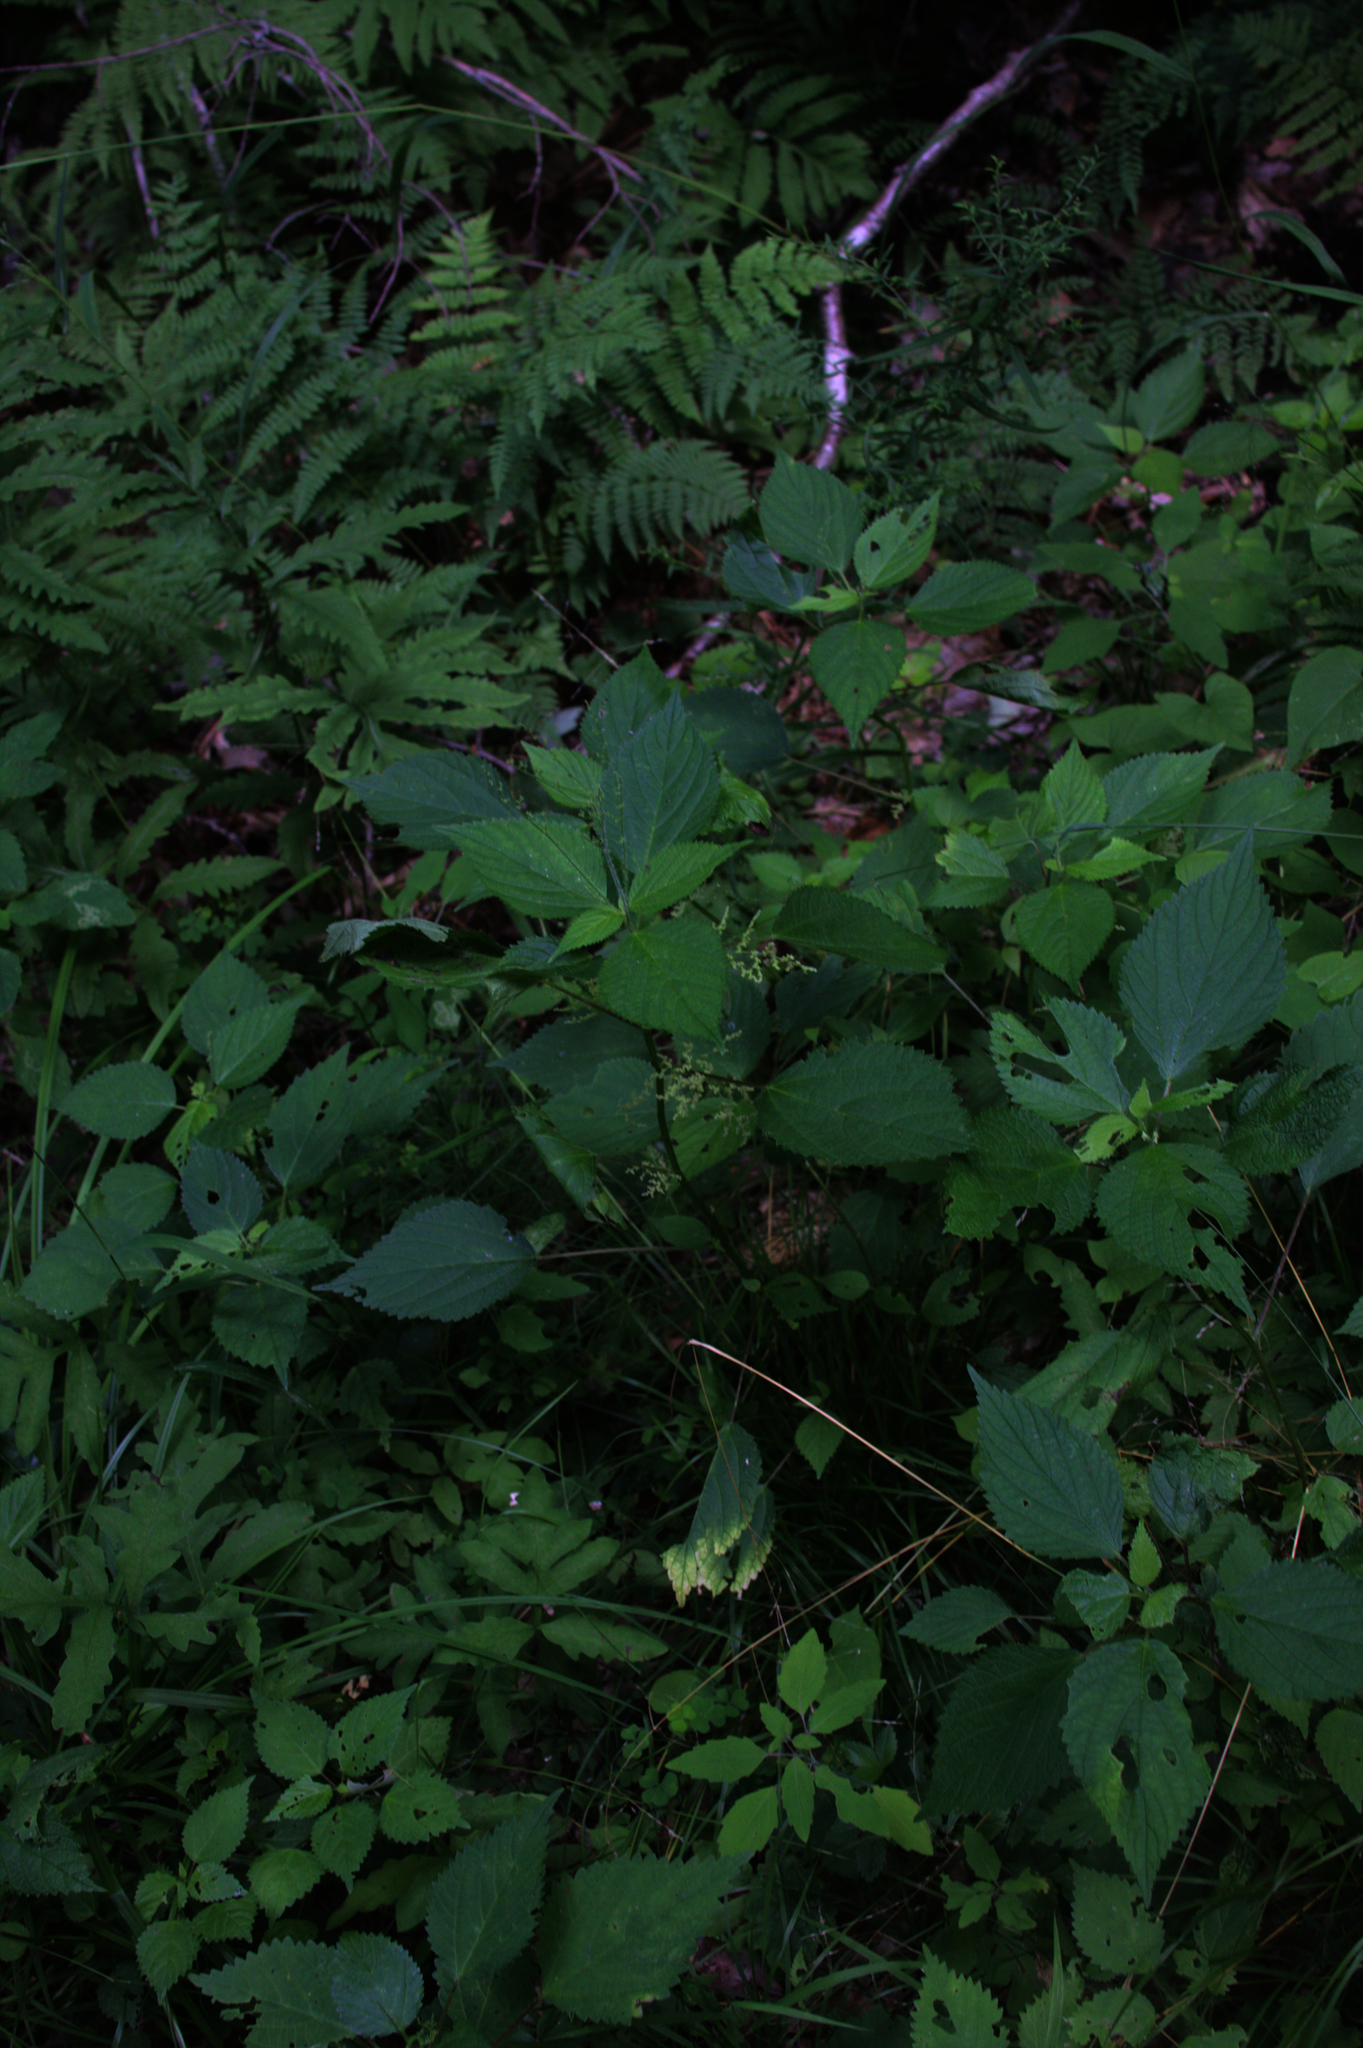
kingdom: Plantae
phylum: Tracheophyta
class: Magnoliopsida
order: Rosales
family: Urticaceae
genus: Laportea
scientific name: Laportea canadensis
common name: Canada nettle
